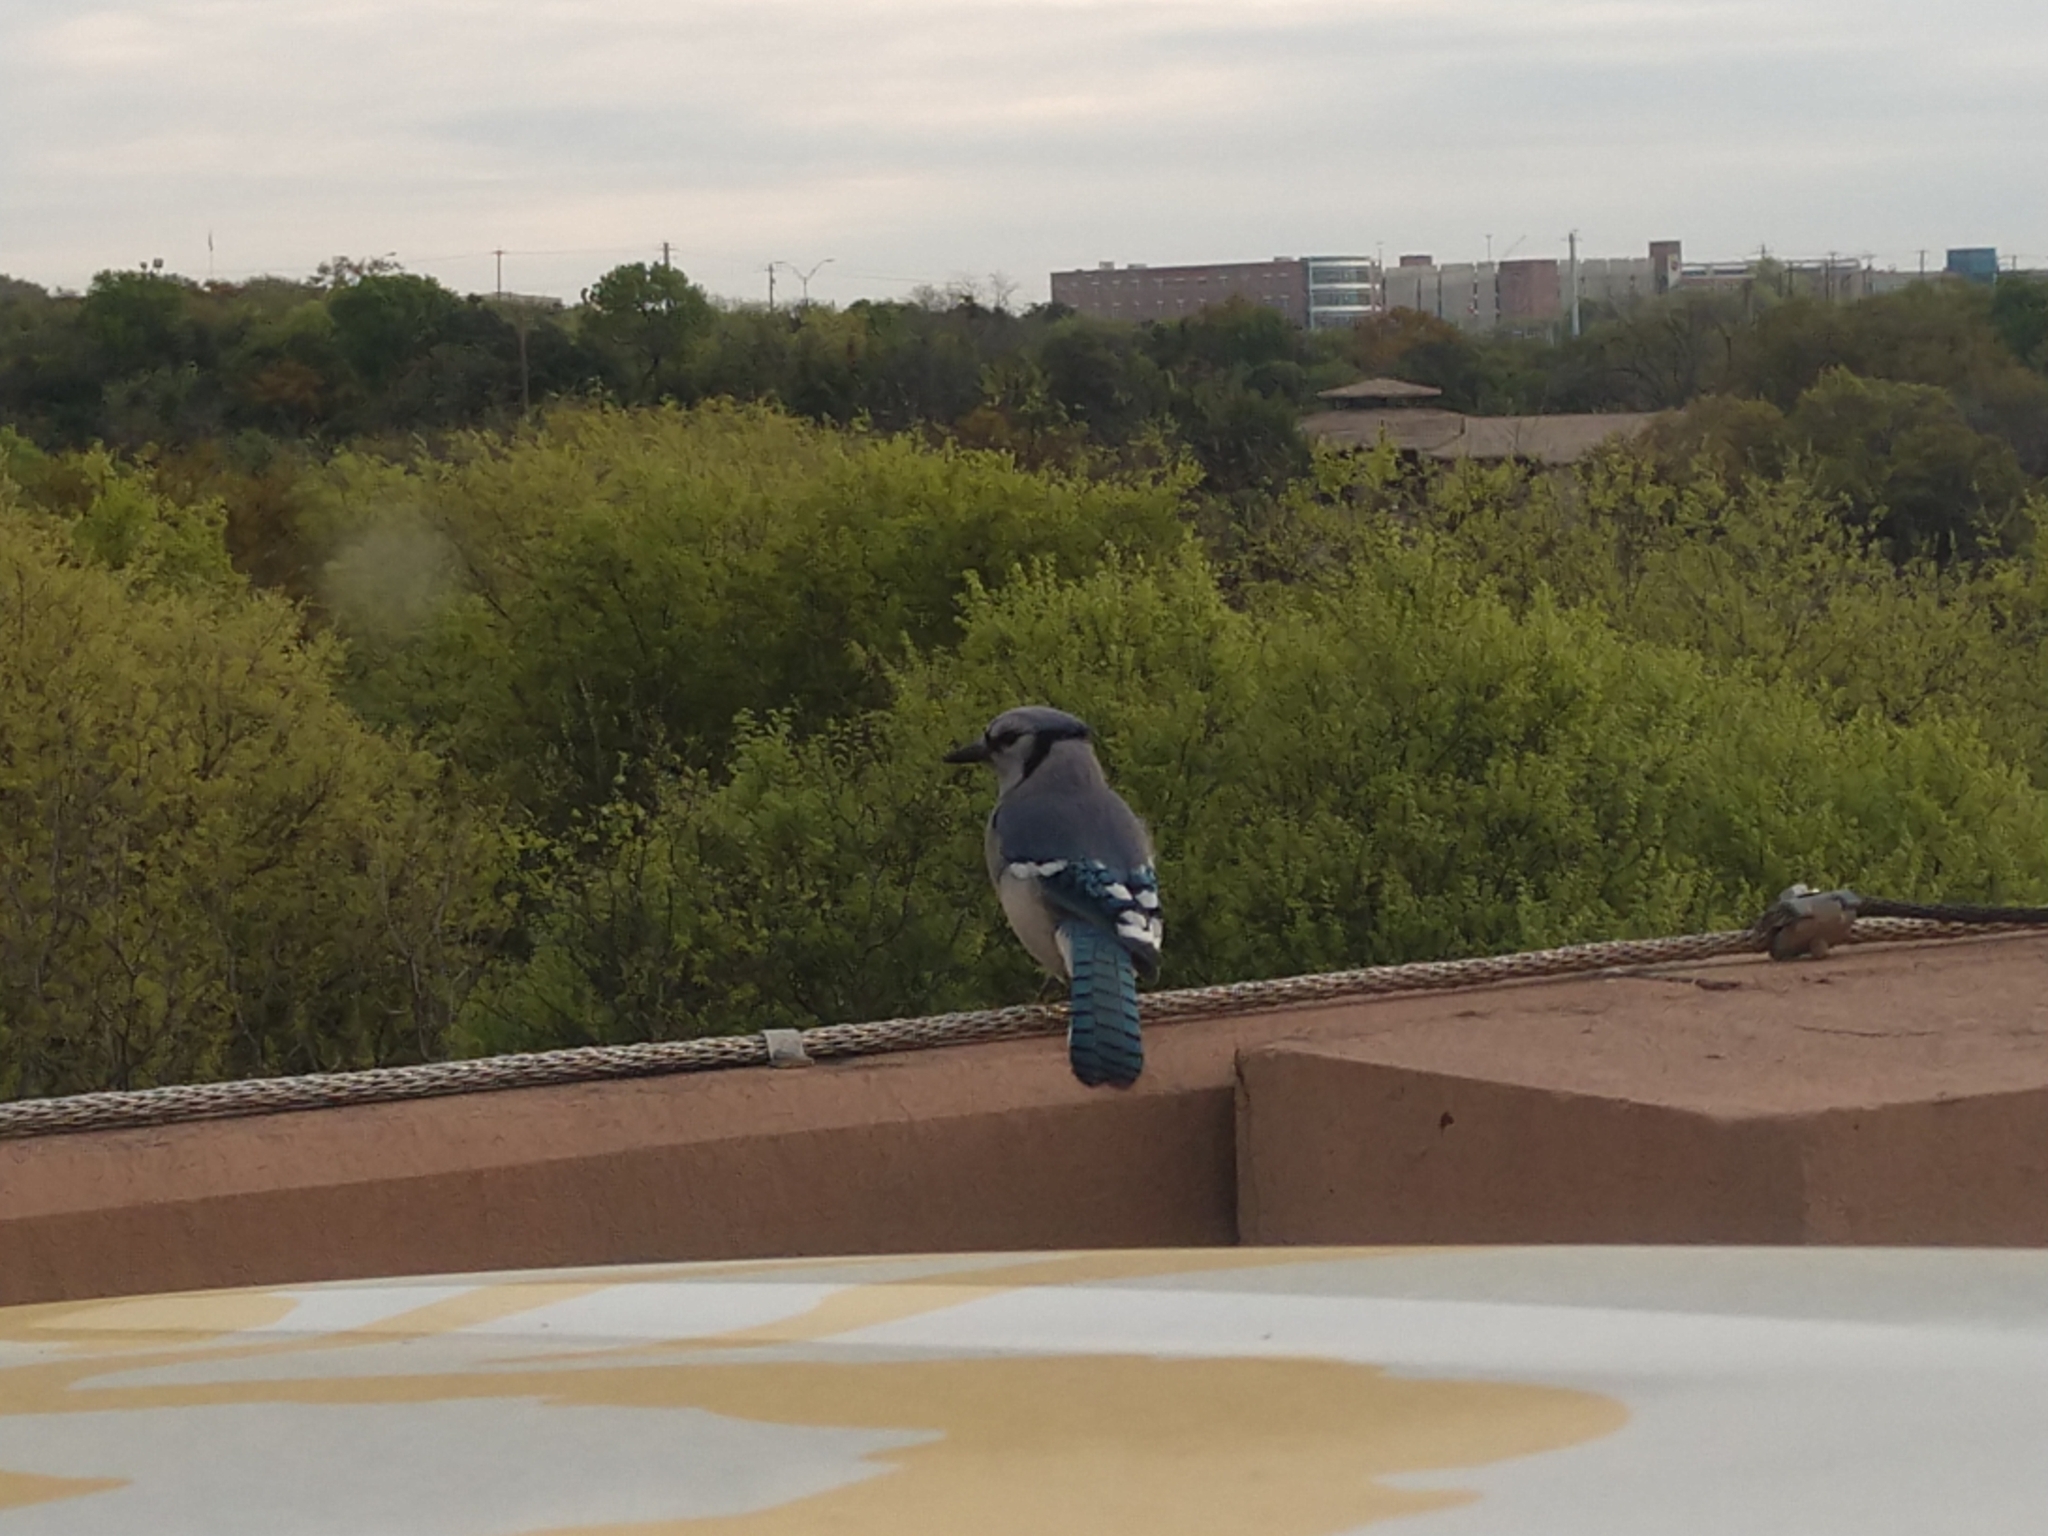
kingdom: Animalia
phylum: Chordata
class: Aves
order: Passeriformes
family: Corvidae
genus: Cyanocitta
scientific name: Cyanocitta cristata
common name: Blue jay
